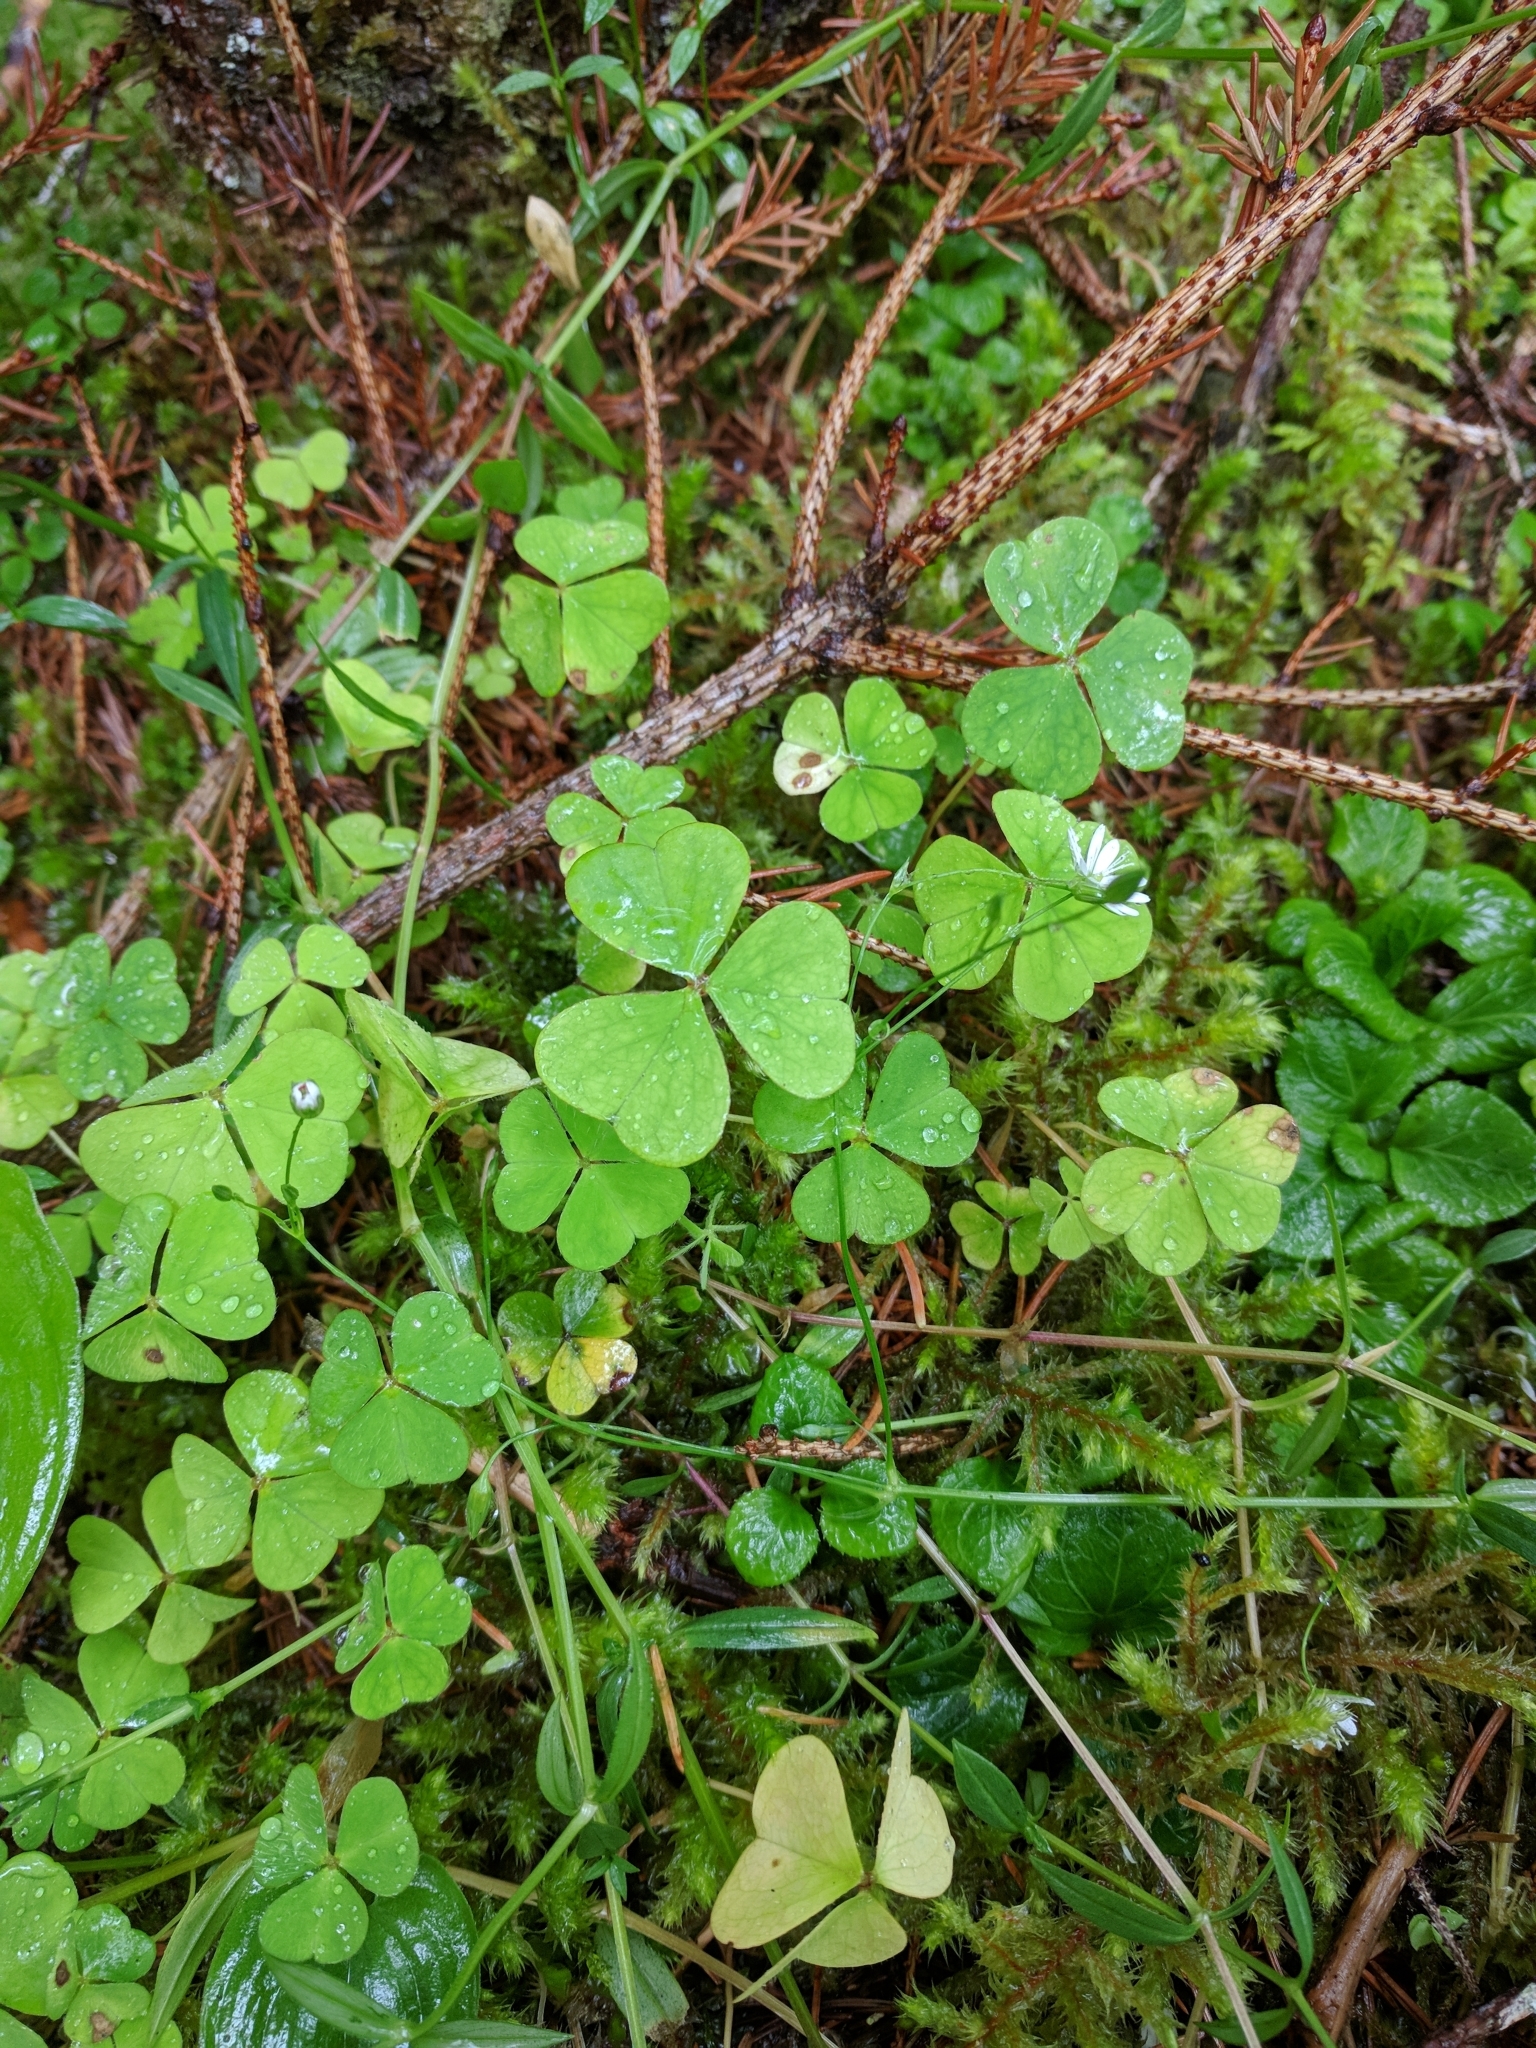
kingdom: Plantae
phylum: Tracheophyta
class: Magnoliopsida
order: Oxalidales
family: Oxalidaceae
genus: Oxalis
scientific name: Oxalis acetosella
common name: Wood-sorrel
